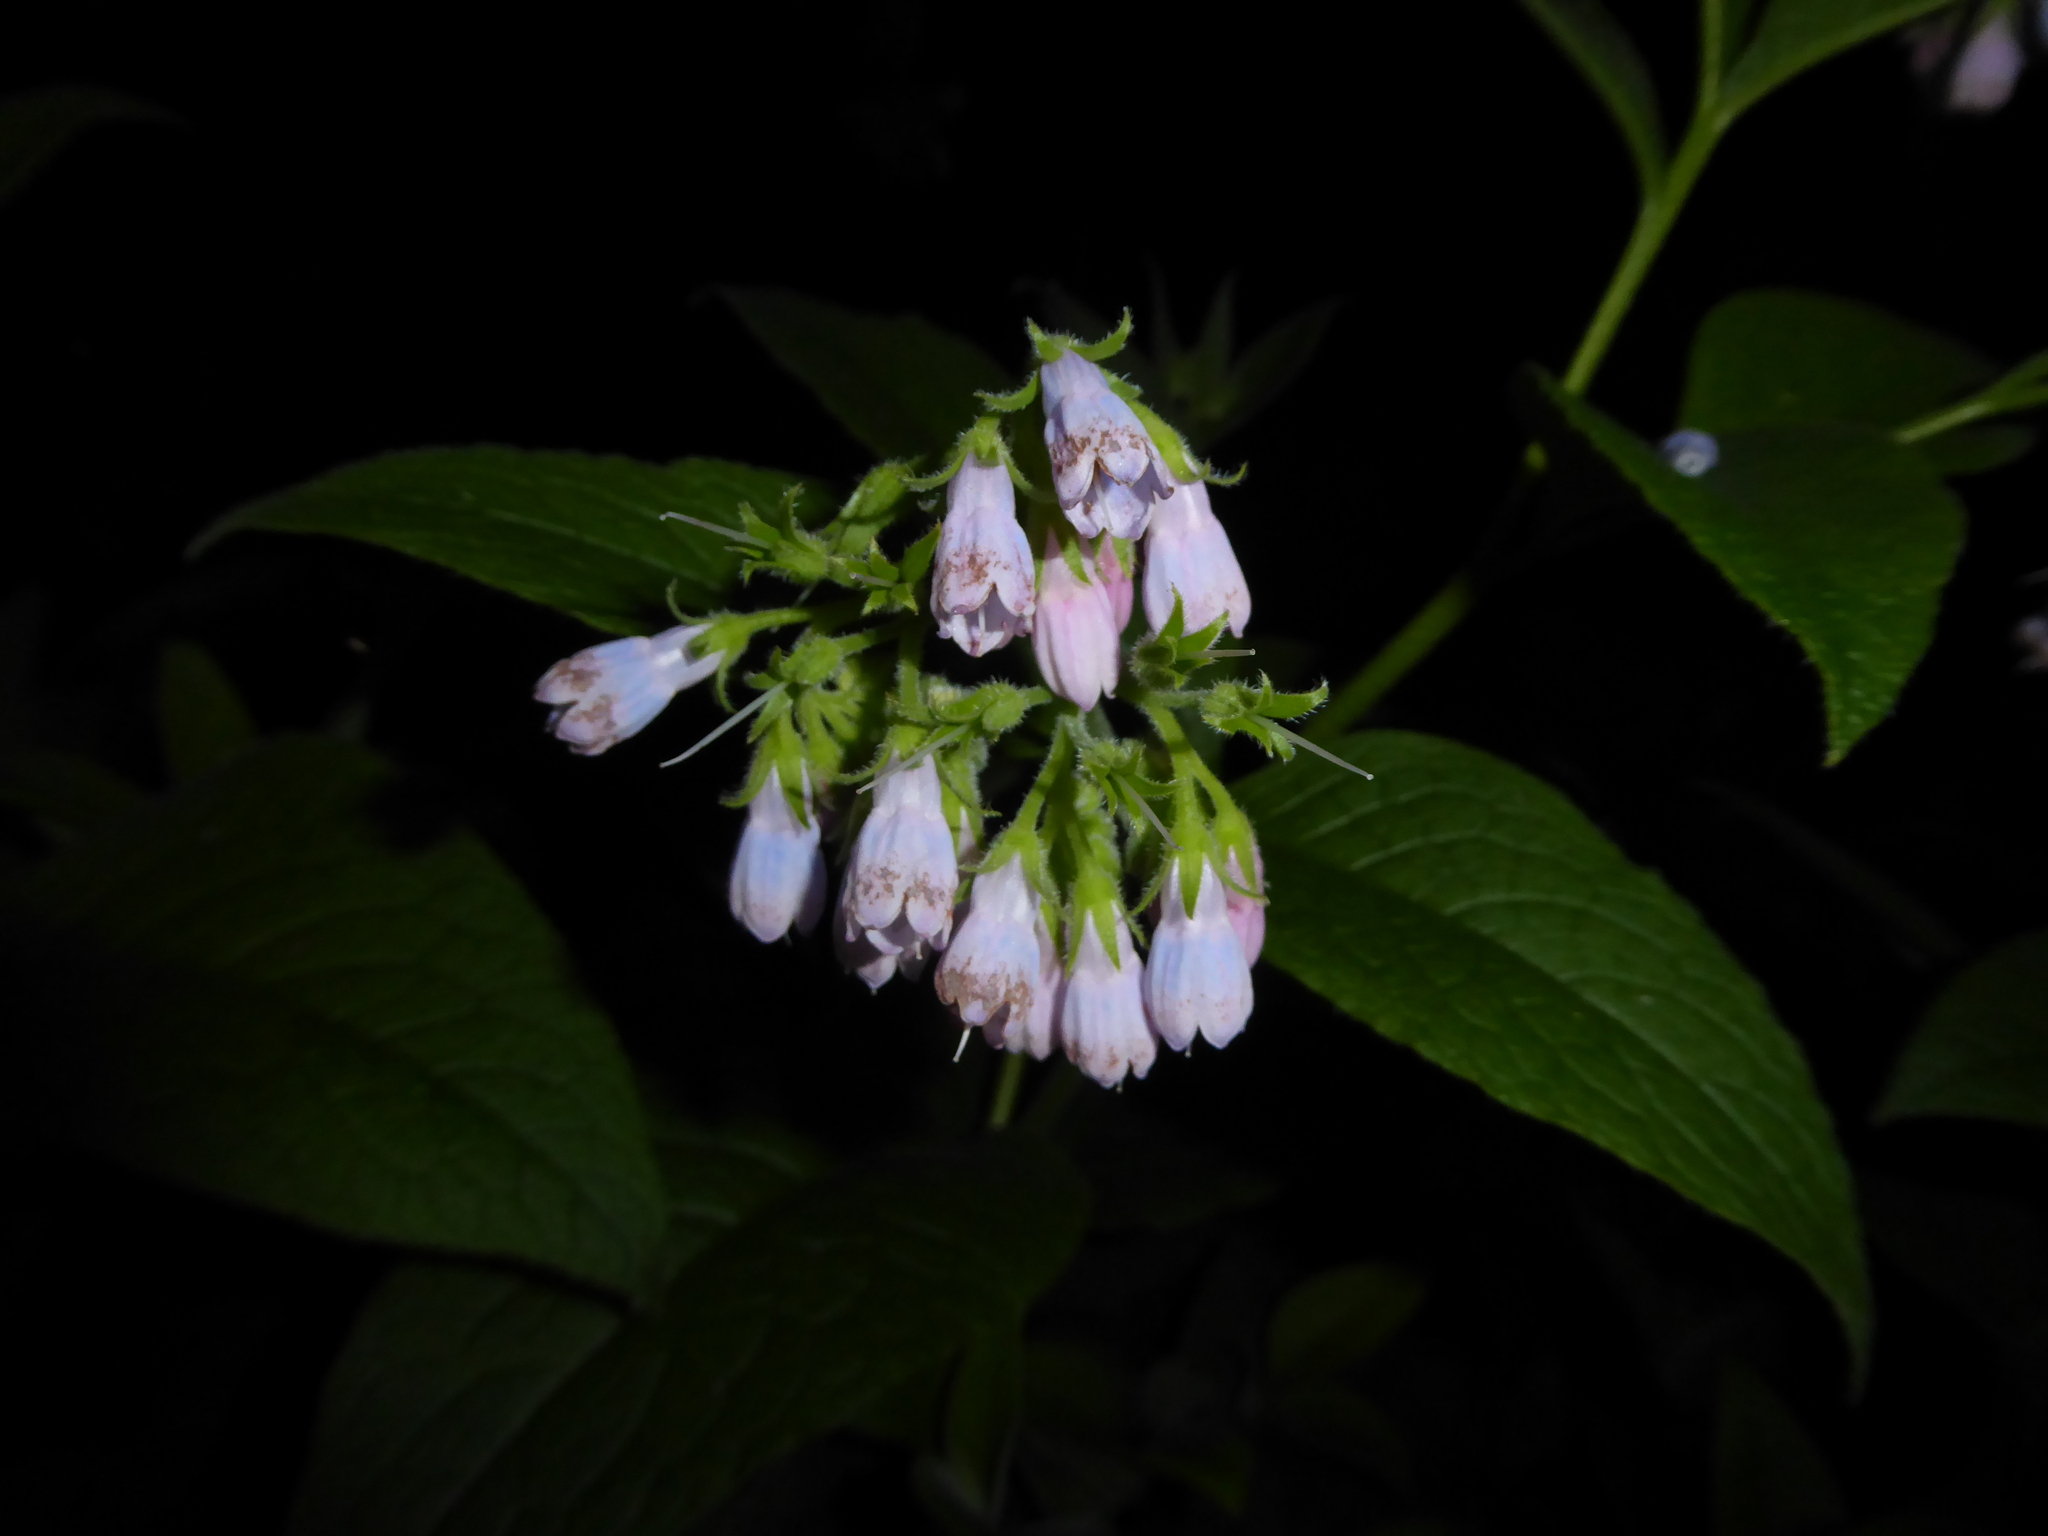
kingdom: Plantae
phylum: Tracheophyta
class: Magnoliopsida
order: Boraginales
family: Boraginaceae
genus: Symphytum
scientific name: Symphytum uplandicum
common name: Russian comfrey
